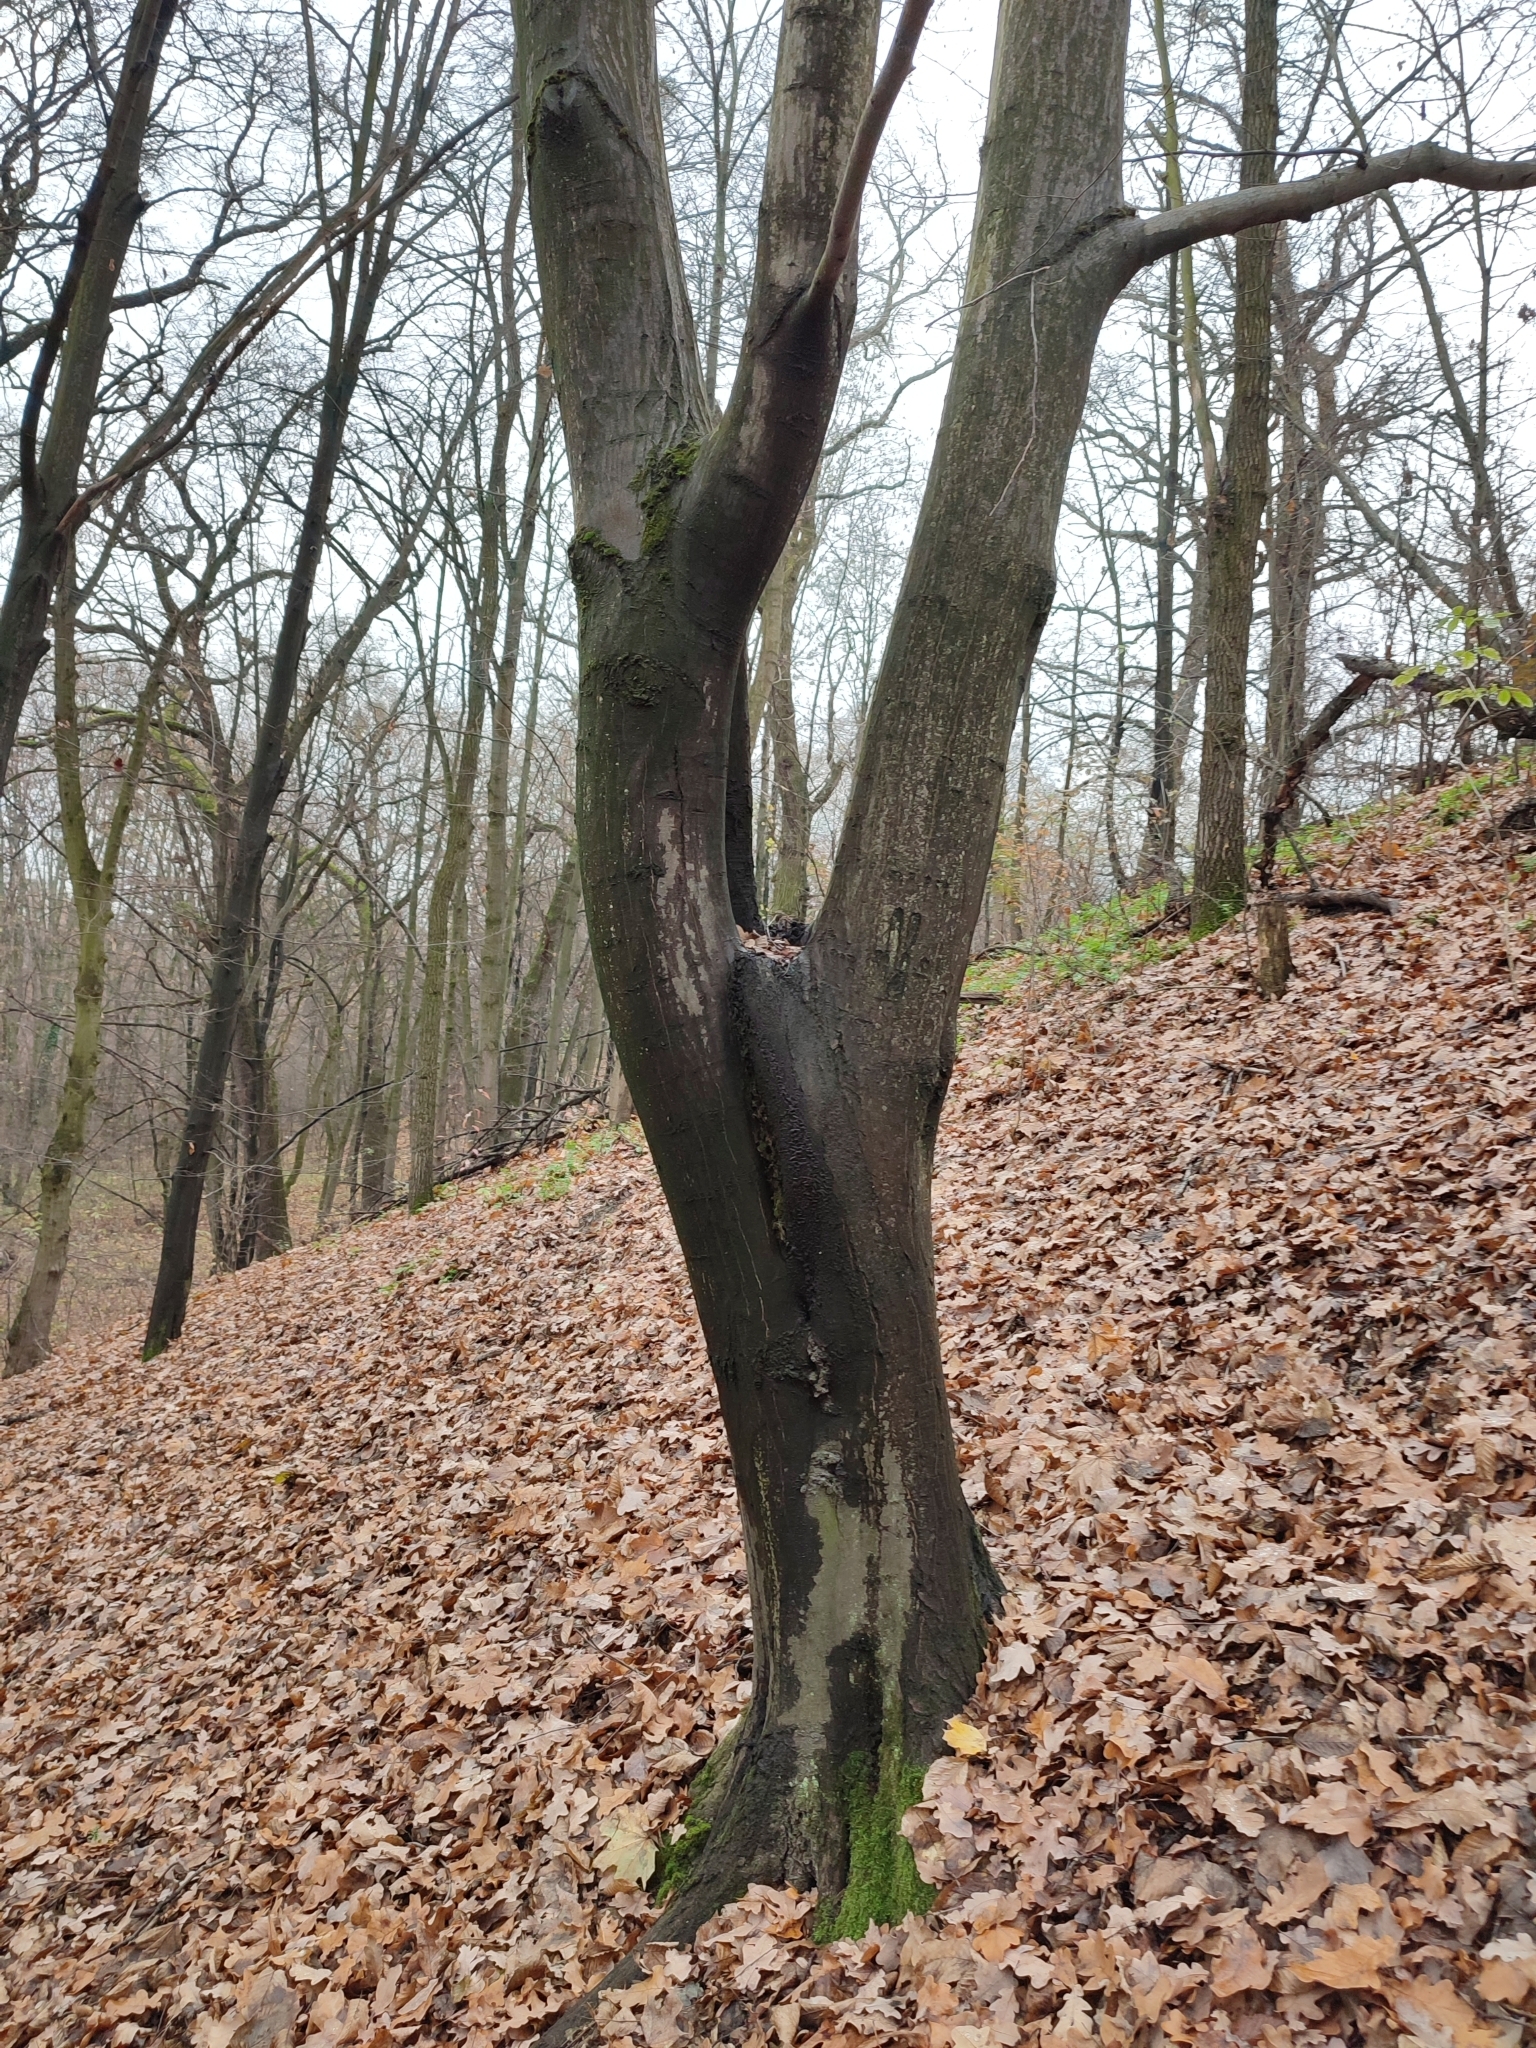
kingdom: Plantae
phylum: Tracheophyta
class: Magnoliopsida
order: Fagales
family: Betulaceae
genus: Carpinus
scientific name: Carpinus betulus
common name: Hornbeam
